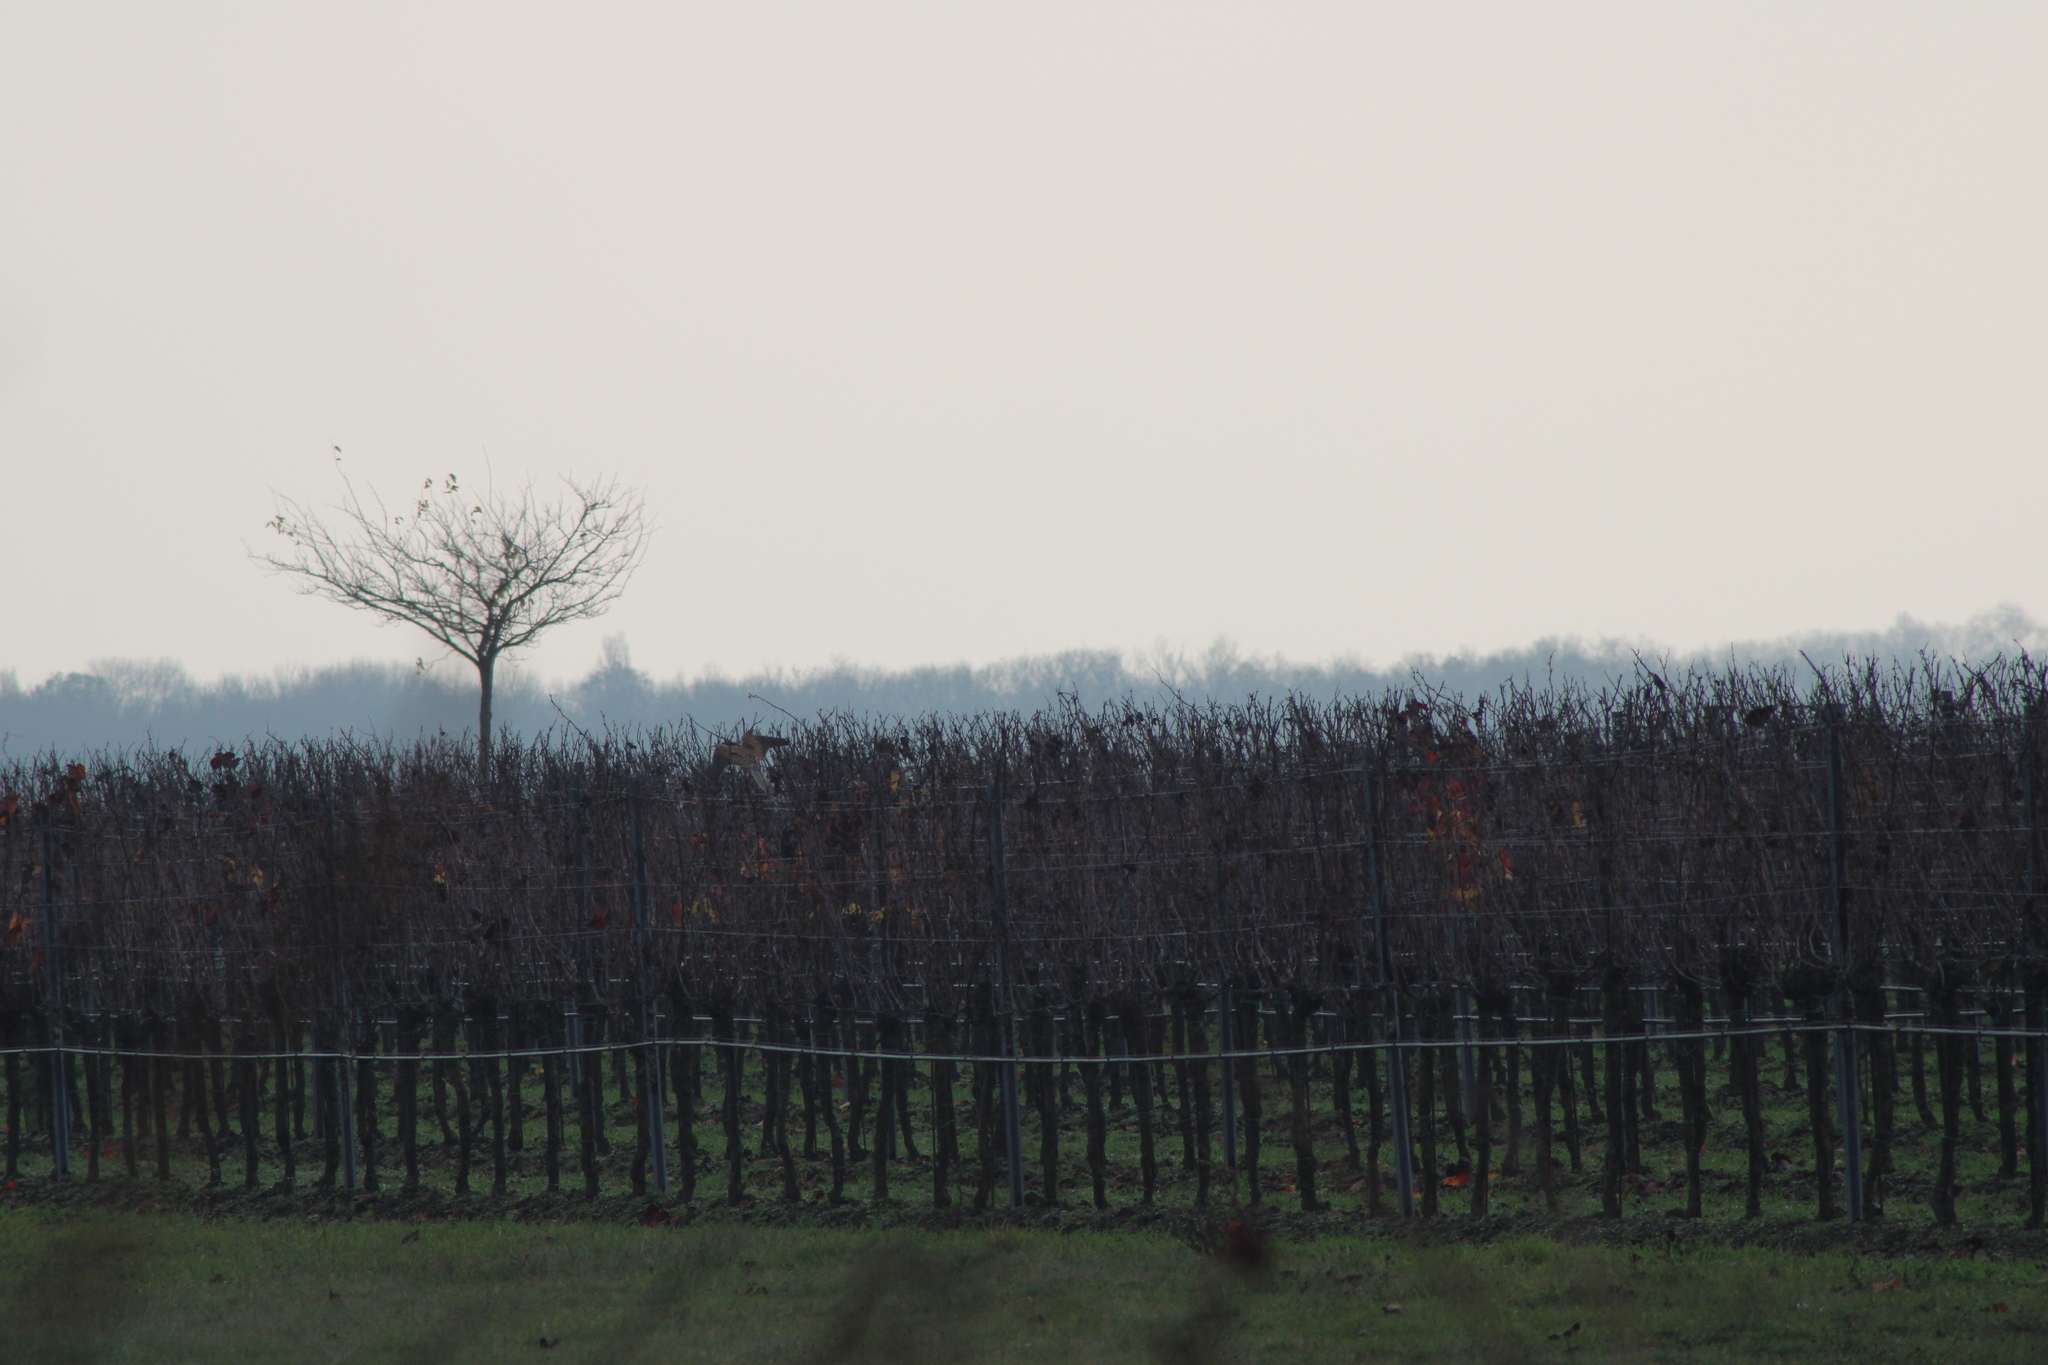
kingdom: Animalia
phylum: Chordata
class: Aves
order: Falconiformes
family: Falconidae
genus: Falco
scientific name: Falco tinnunculus
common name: Common kestrel
